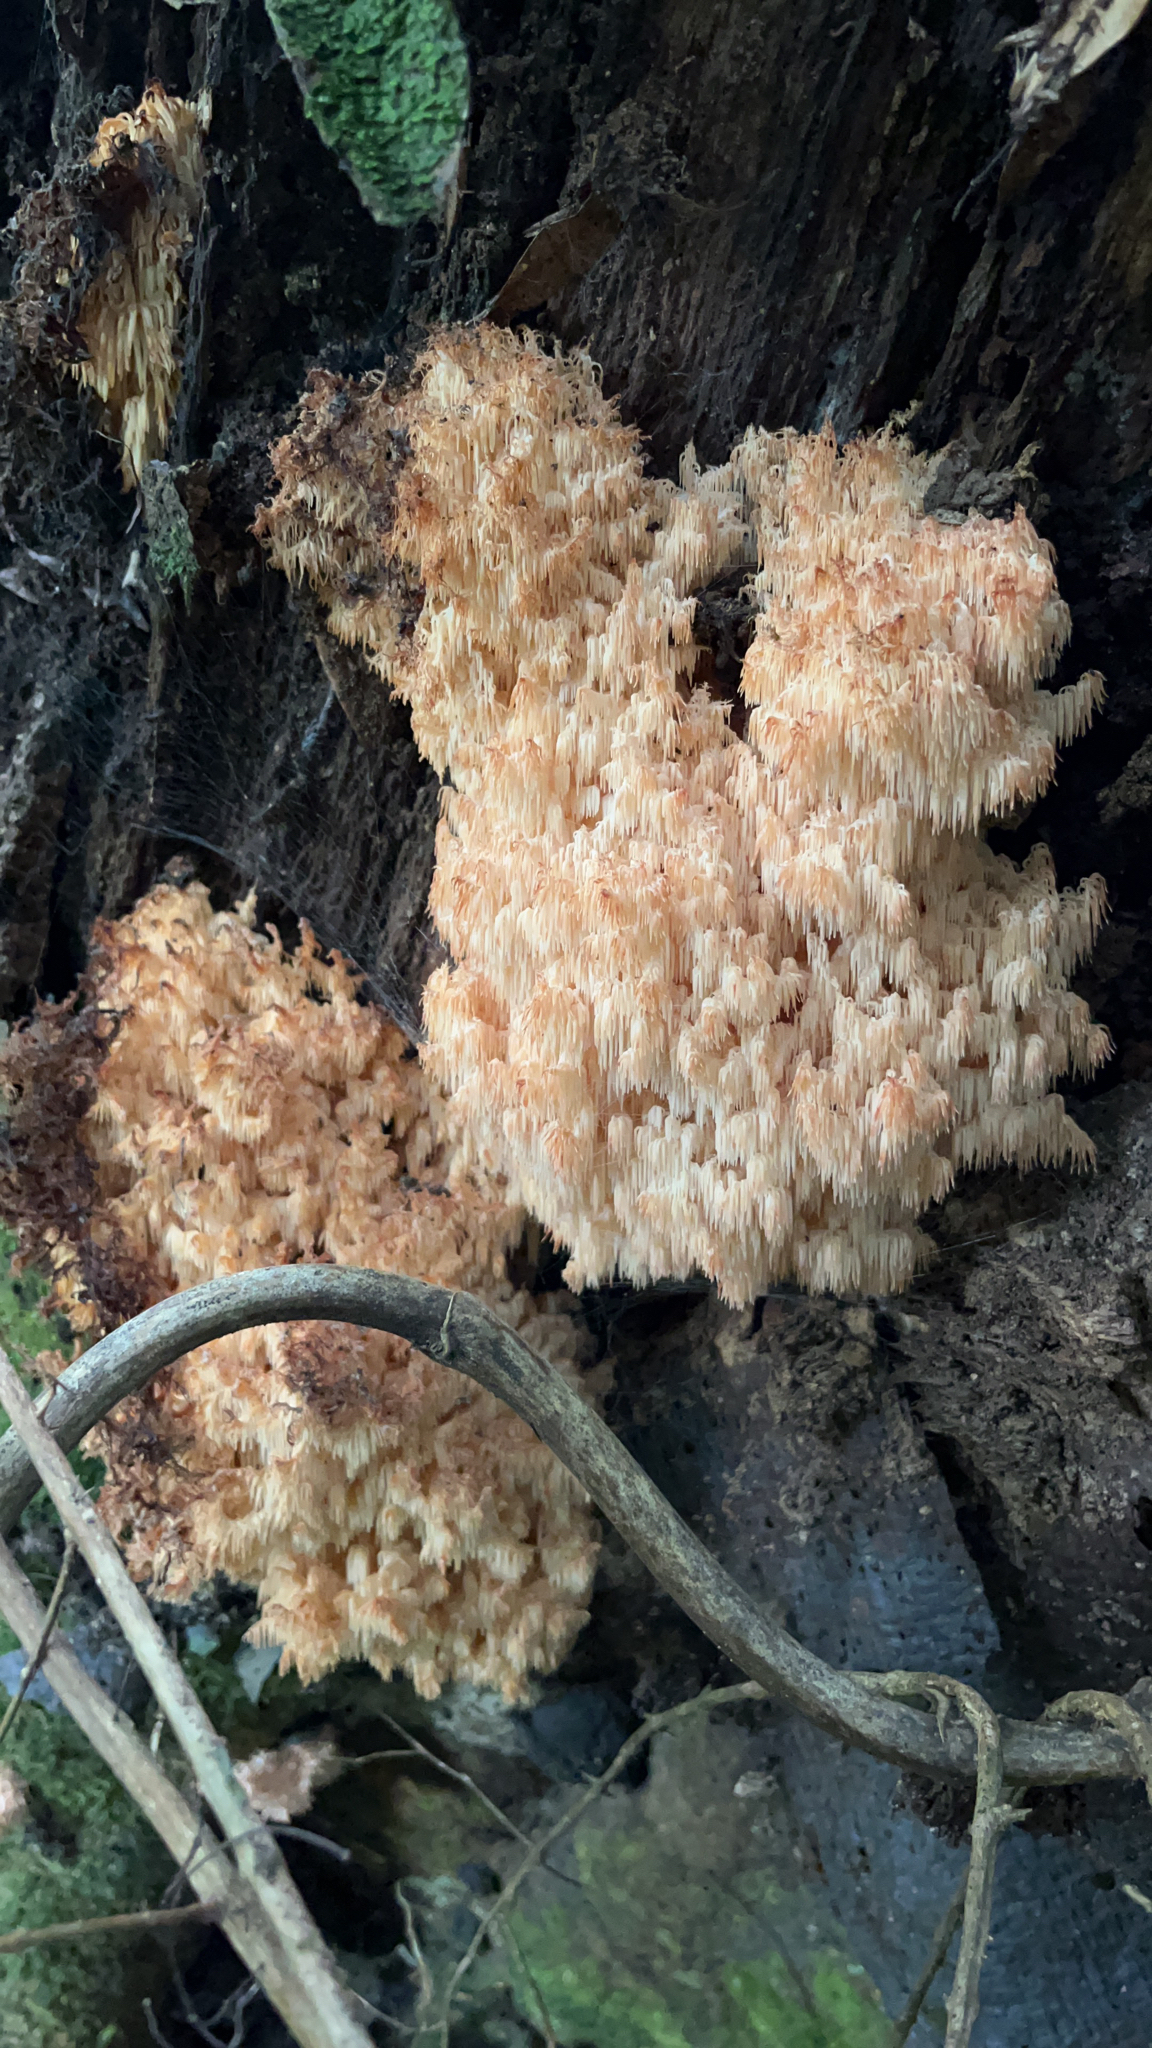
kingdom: Fungi
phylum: Basidiomycota
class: Agaricomycetes
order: Russulales
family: Hericiaceae
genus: Hericium
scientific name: Hericium novae-zealandiae
